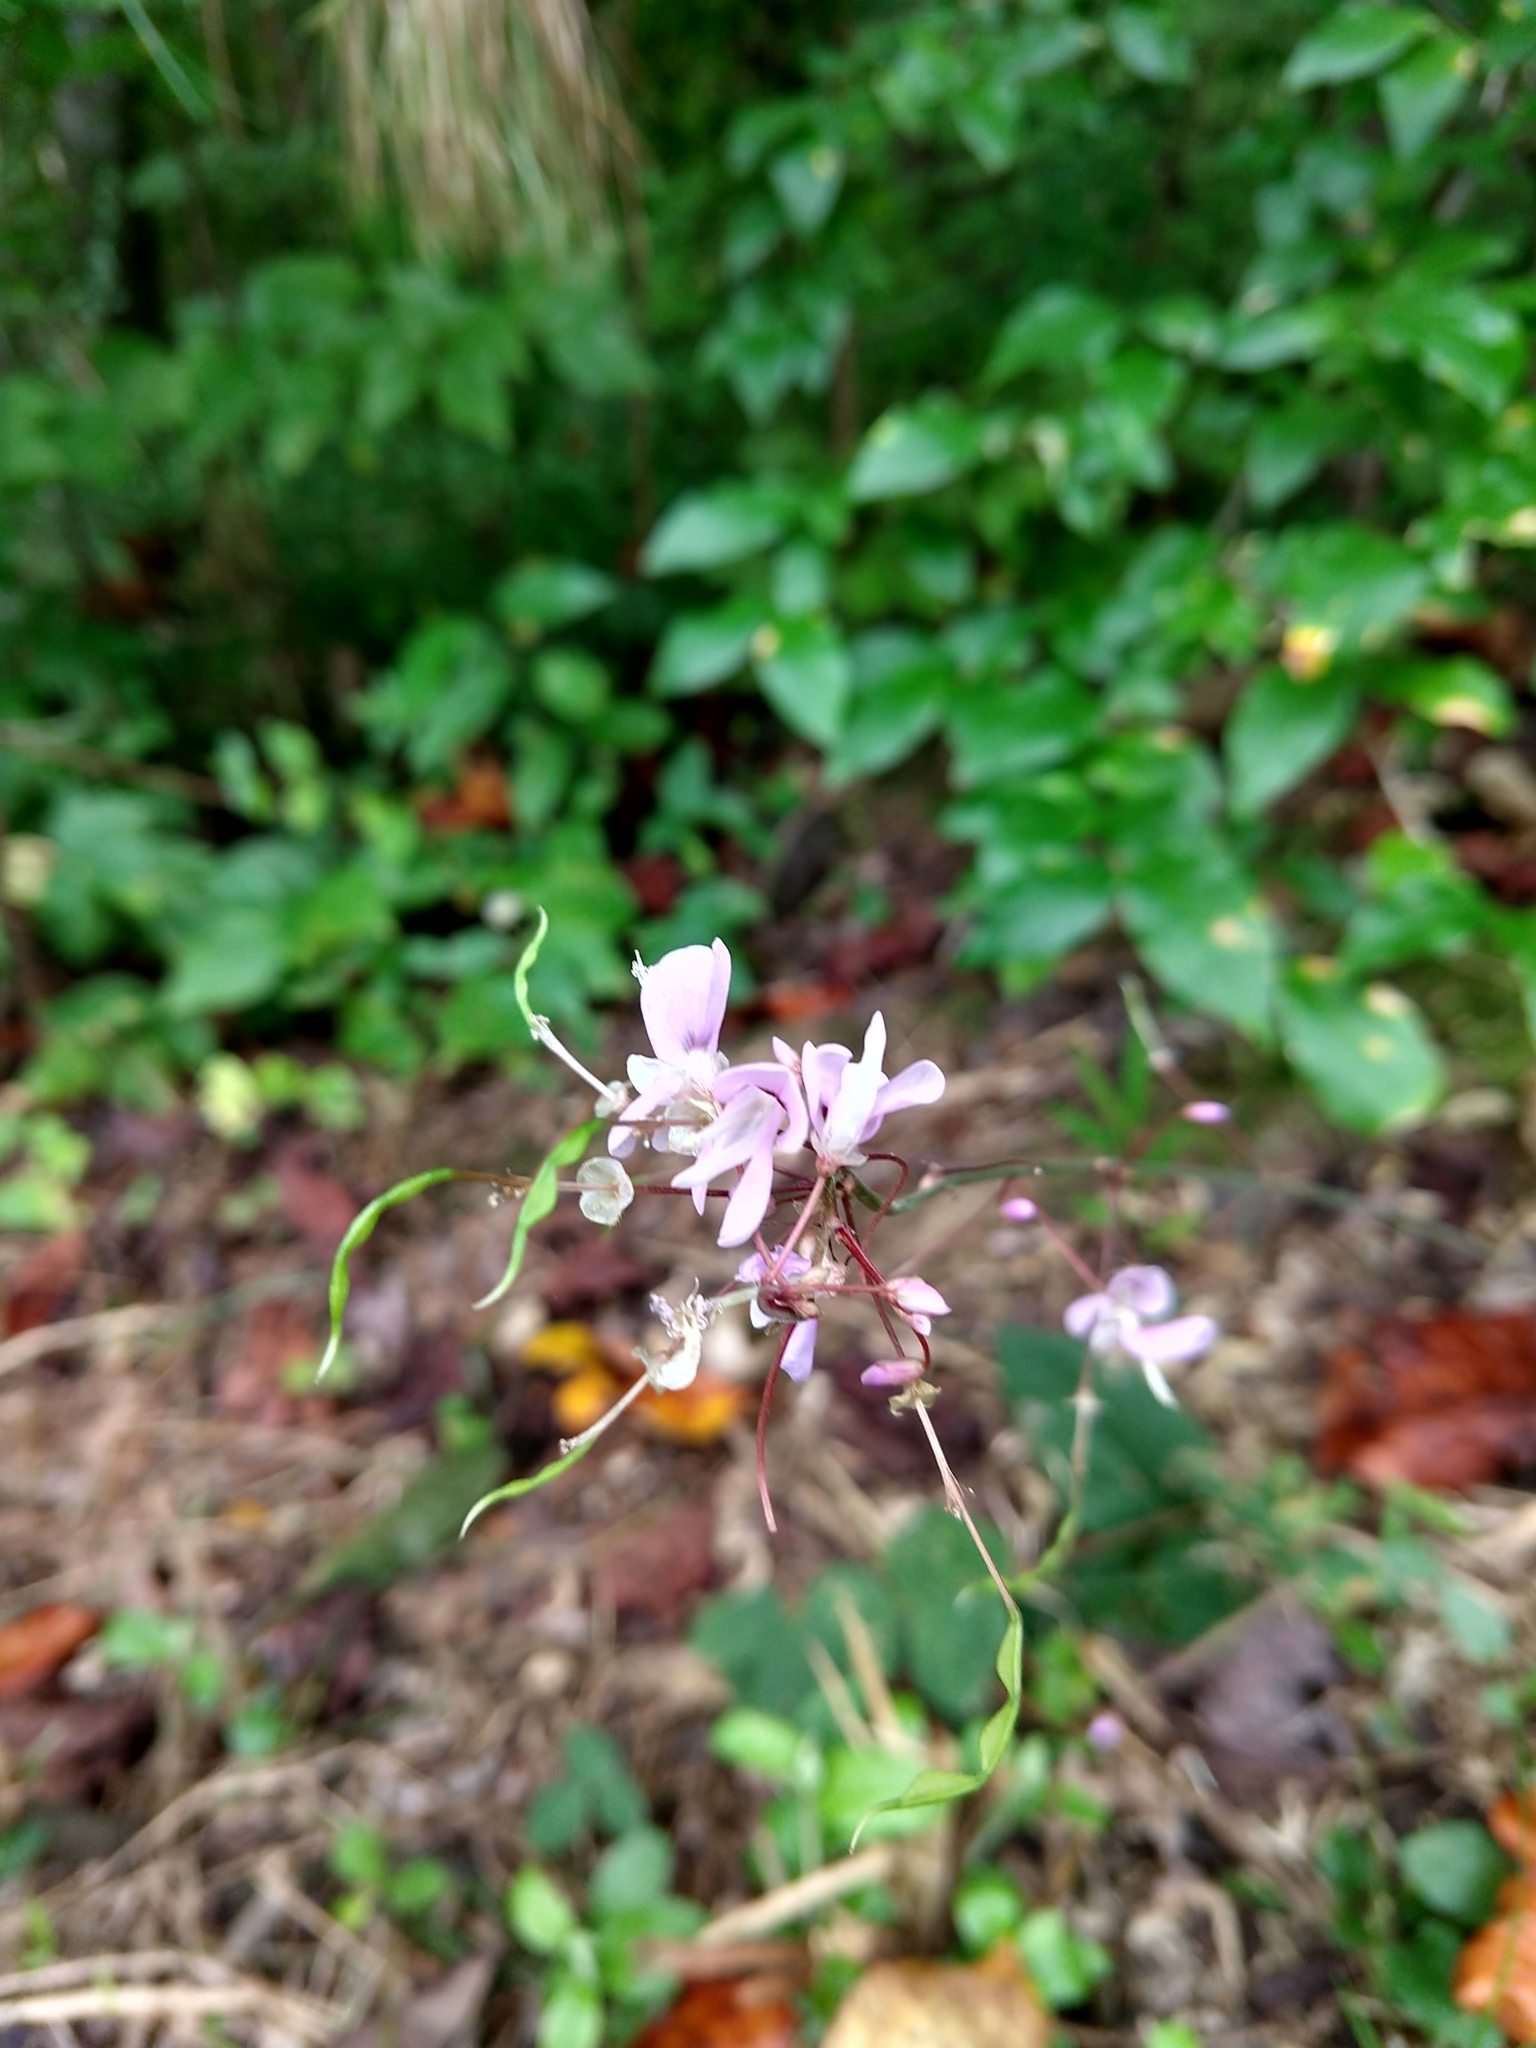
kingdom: Plantae
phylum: Tracheophyta
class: Magnoliopsida
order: Fabales
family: Fabaceae
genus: Hylodesmum
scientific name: Hylodesmum nudiflorum
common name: Bare-stemmed tick-trefoil
